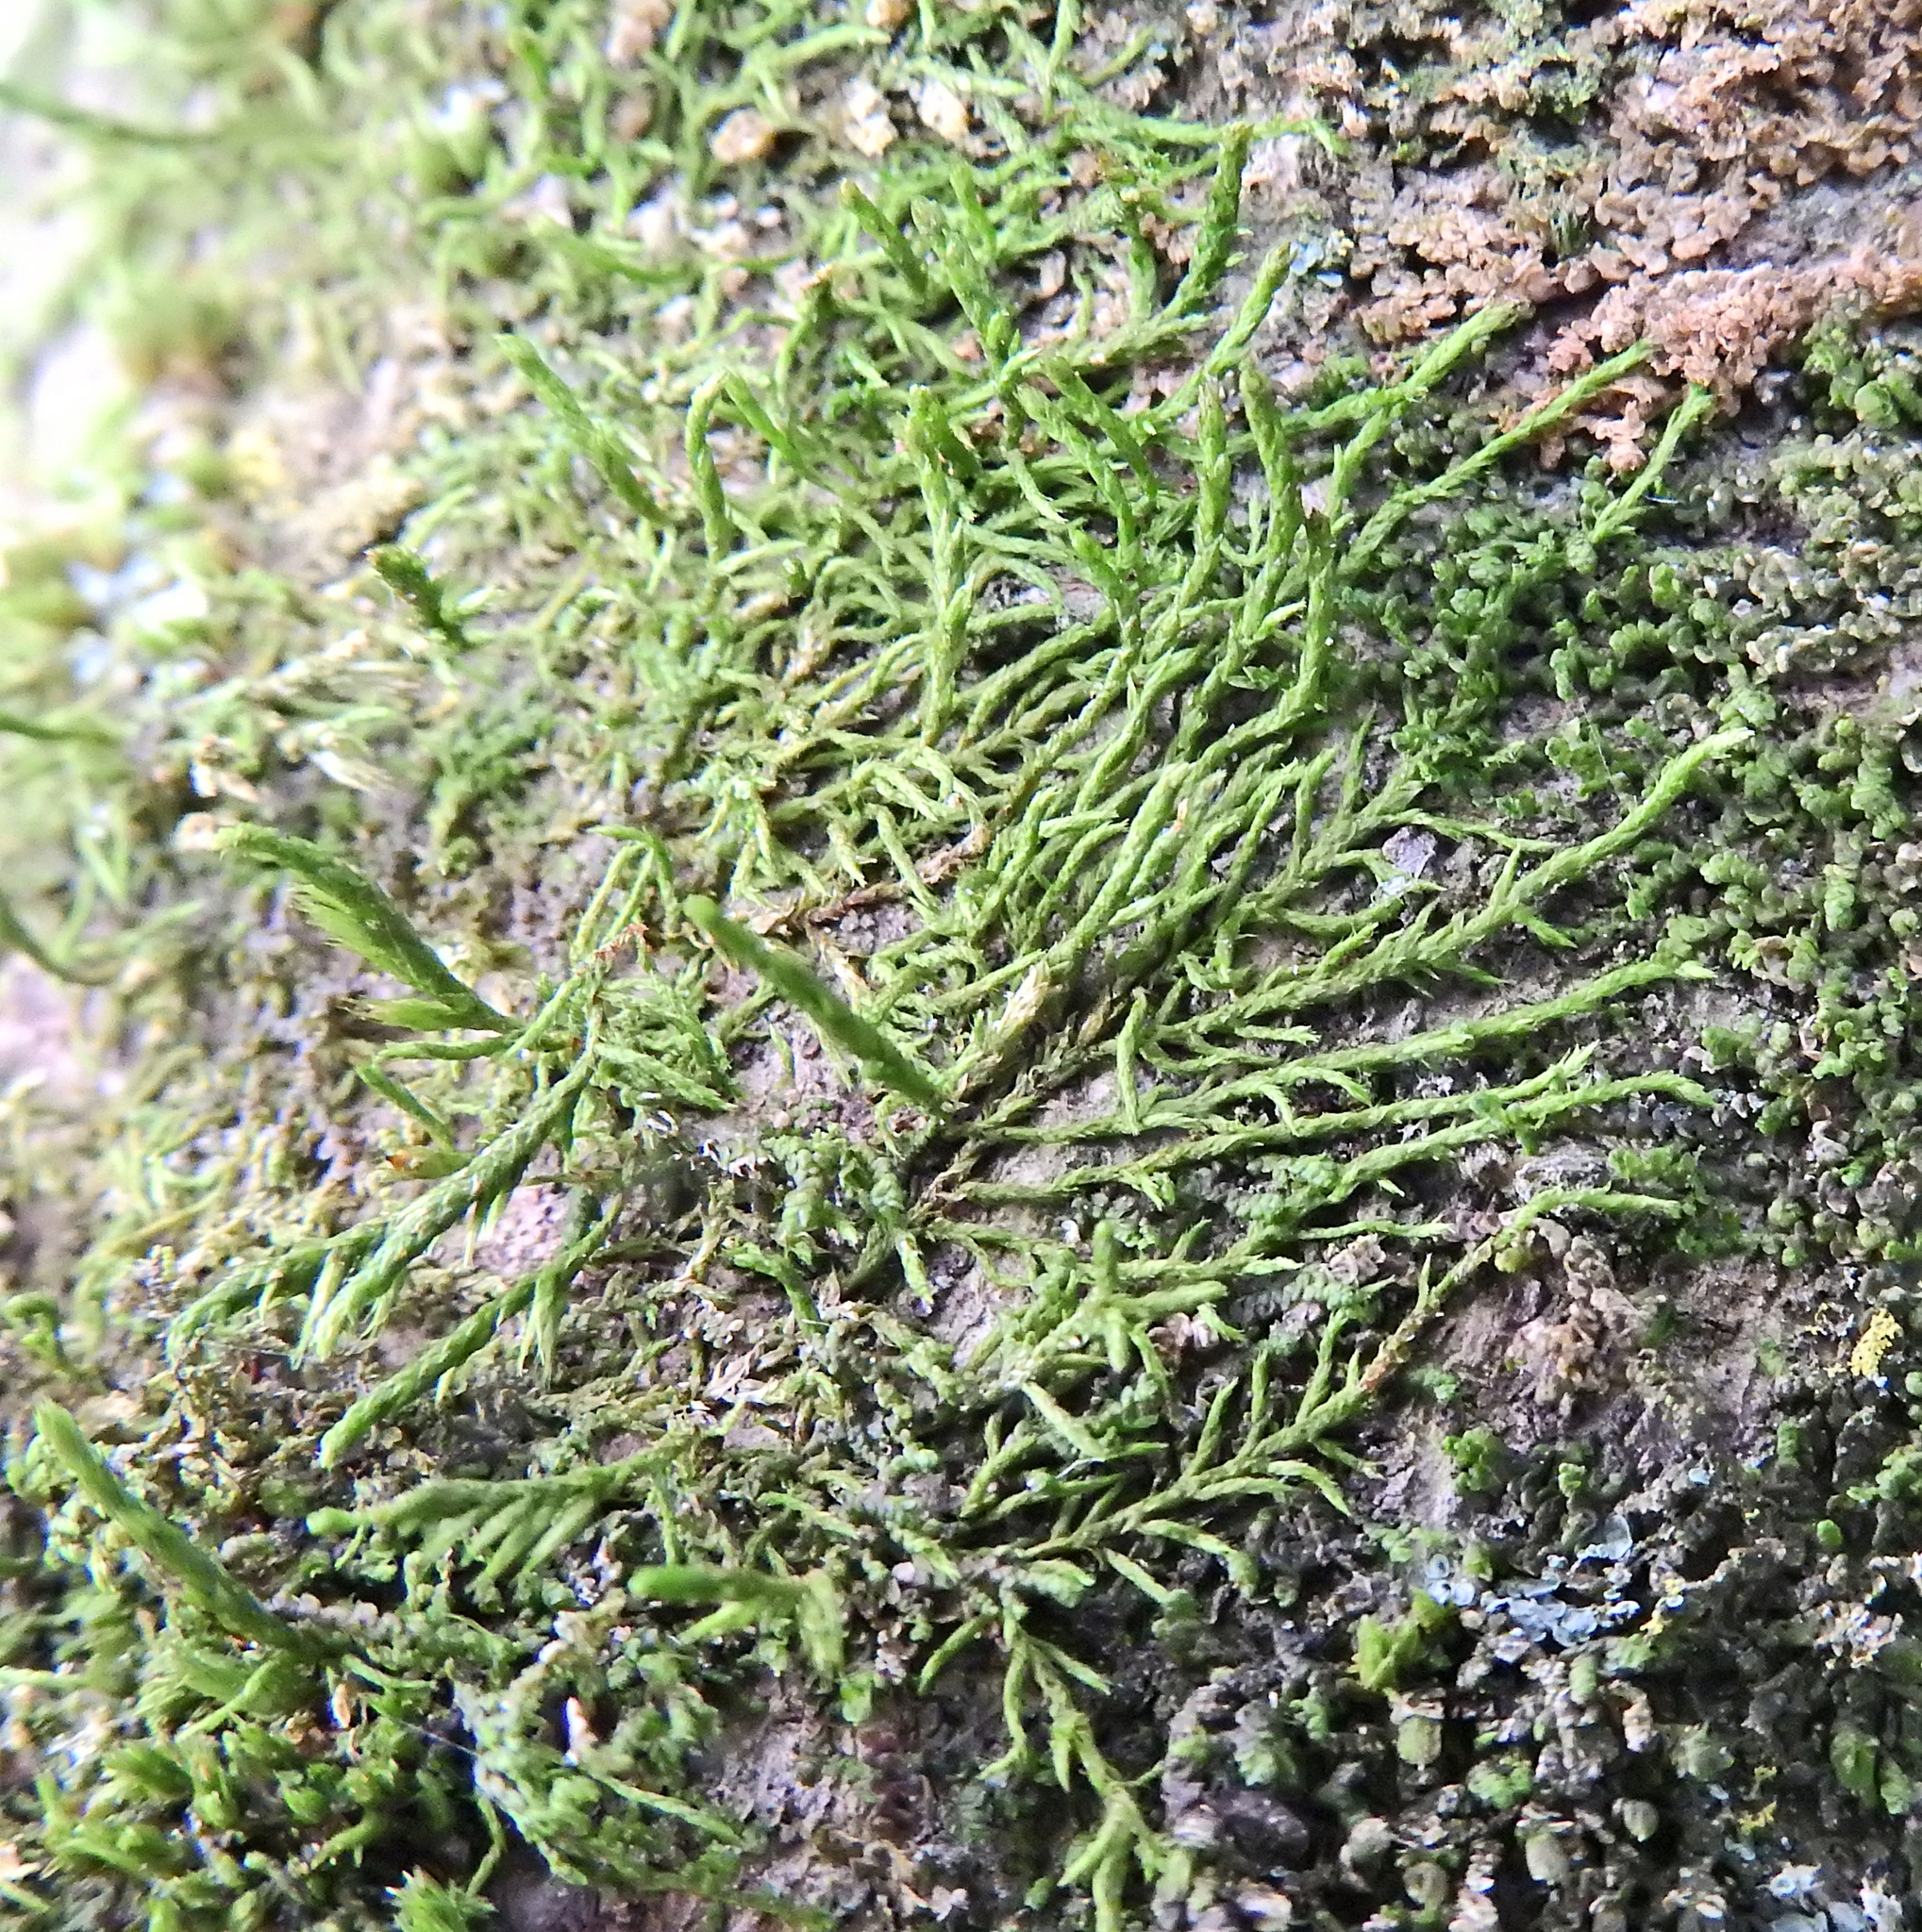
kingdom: Plantae
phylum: Bryophyta
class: Bryopsida
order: Hypnales
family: Cryphaeaceae
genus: Cryphaea
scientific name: Cryphaea heteromalla
